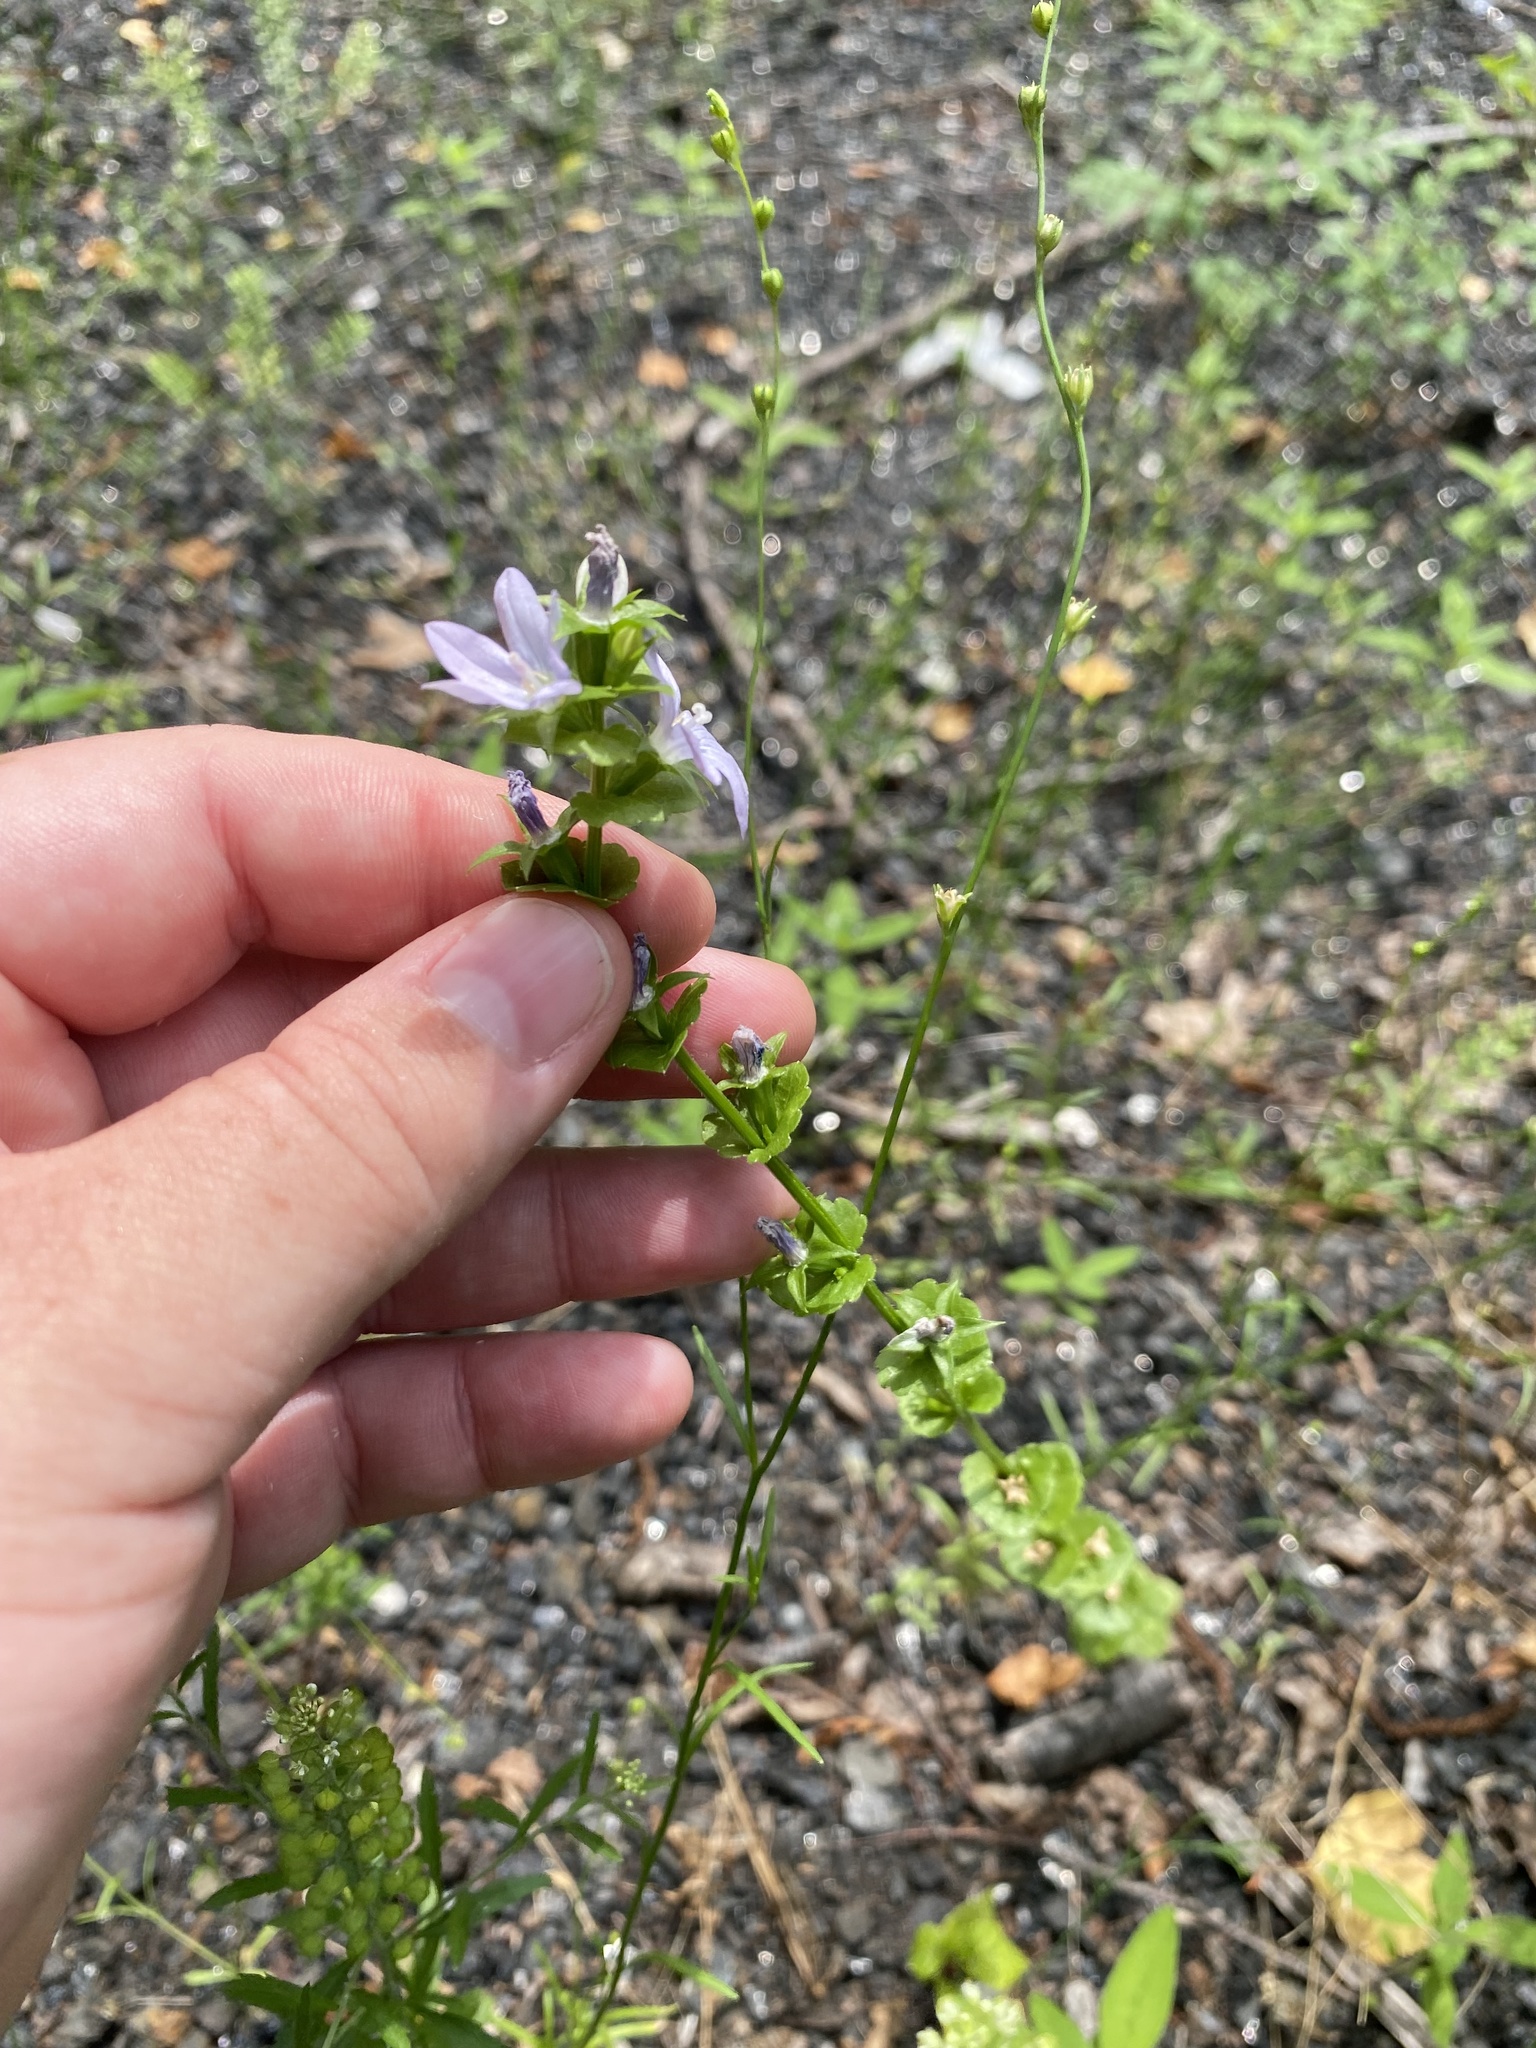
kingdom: Plantae
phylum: Tracheophyta
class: Magnoliopsida
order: Asterales
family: Campanulaceae
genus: Triodanis
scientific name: Triodanis perfoliata
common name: Clasping venus' looking-glass
